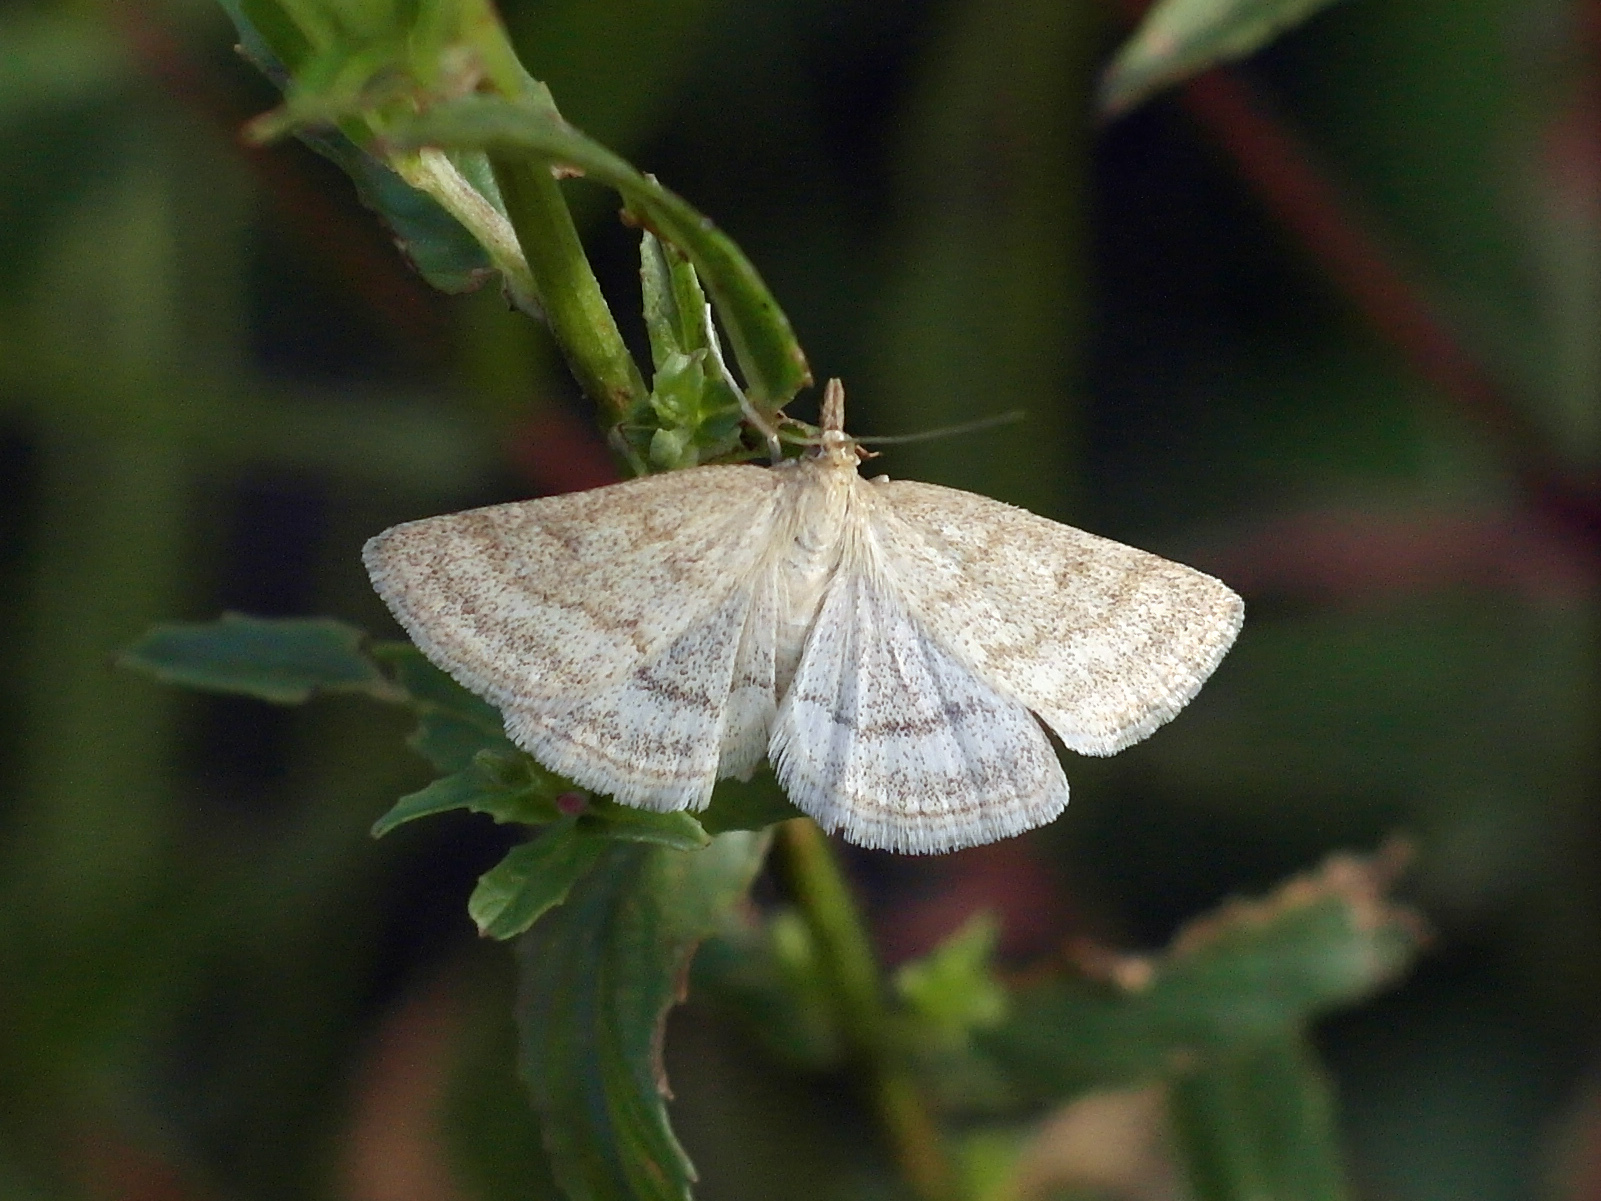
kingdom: Animalia
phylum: Arthropoda
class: Insecta
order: Lepidoptera
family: Crambidae
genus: Psammotis
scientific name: Psammotis viminalis
